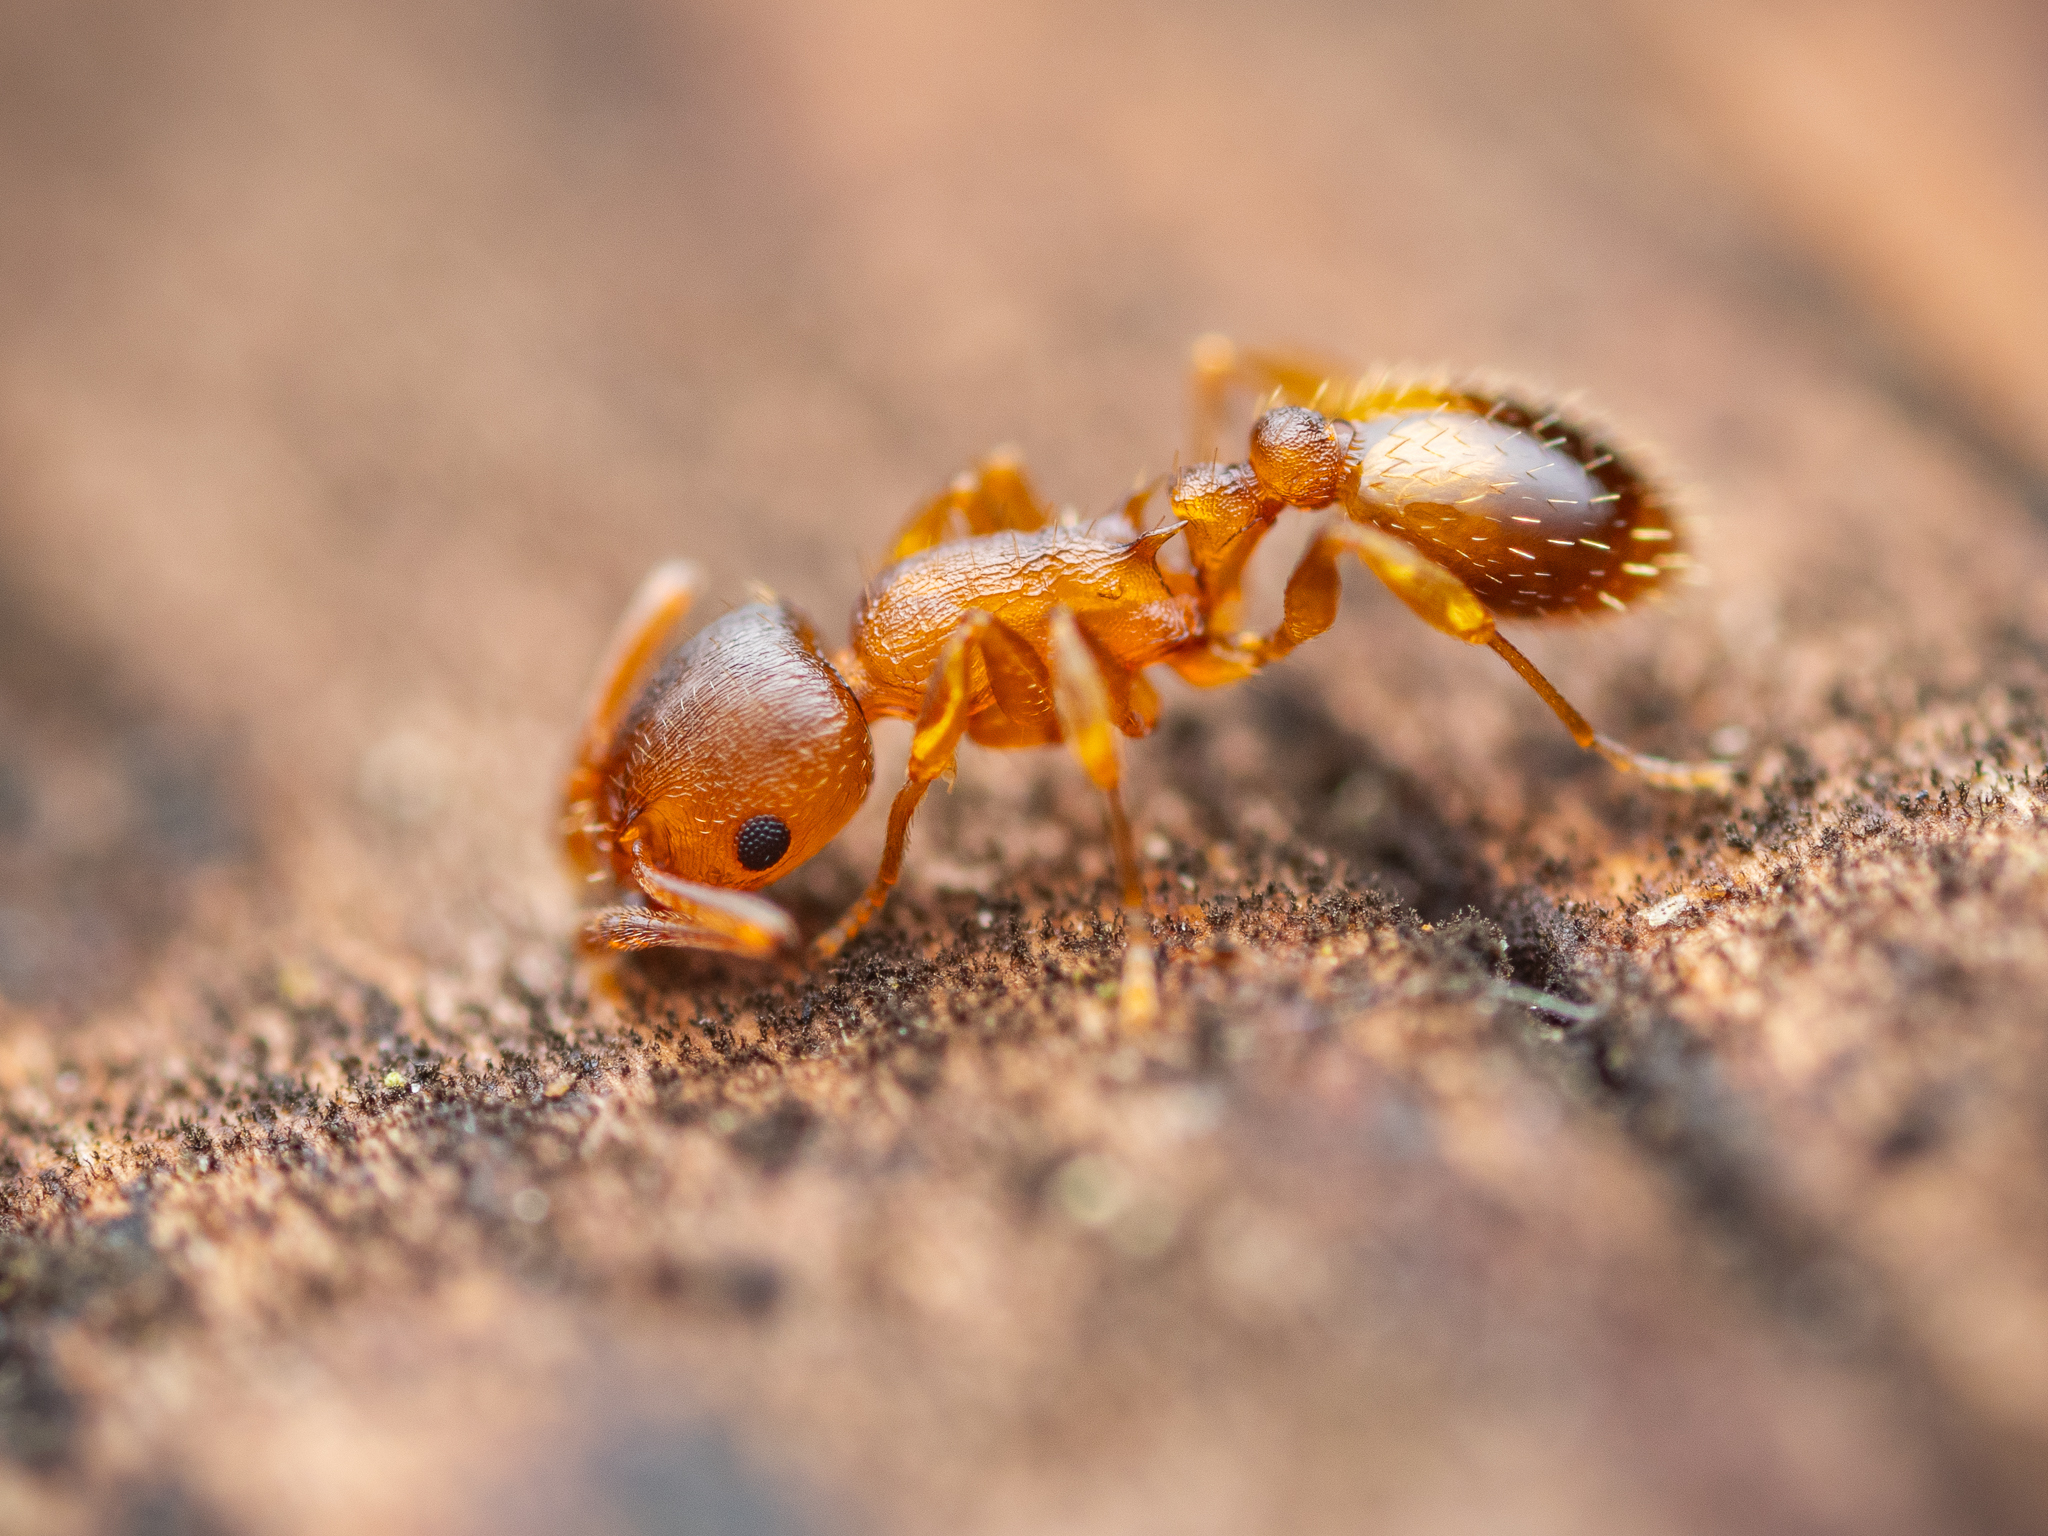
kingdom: Animalia
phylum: Arthropoda
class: Insecta
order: Hymenoptera
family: Formicidae
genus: Temnothorax
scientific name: Temnothorax crassispinus
